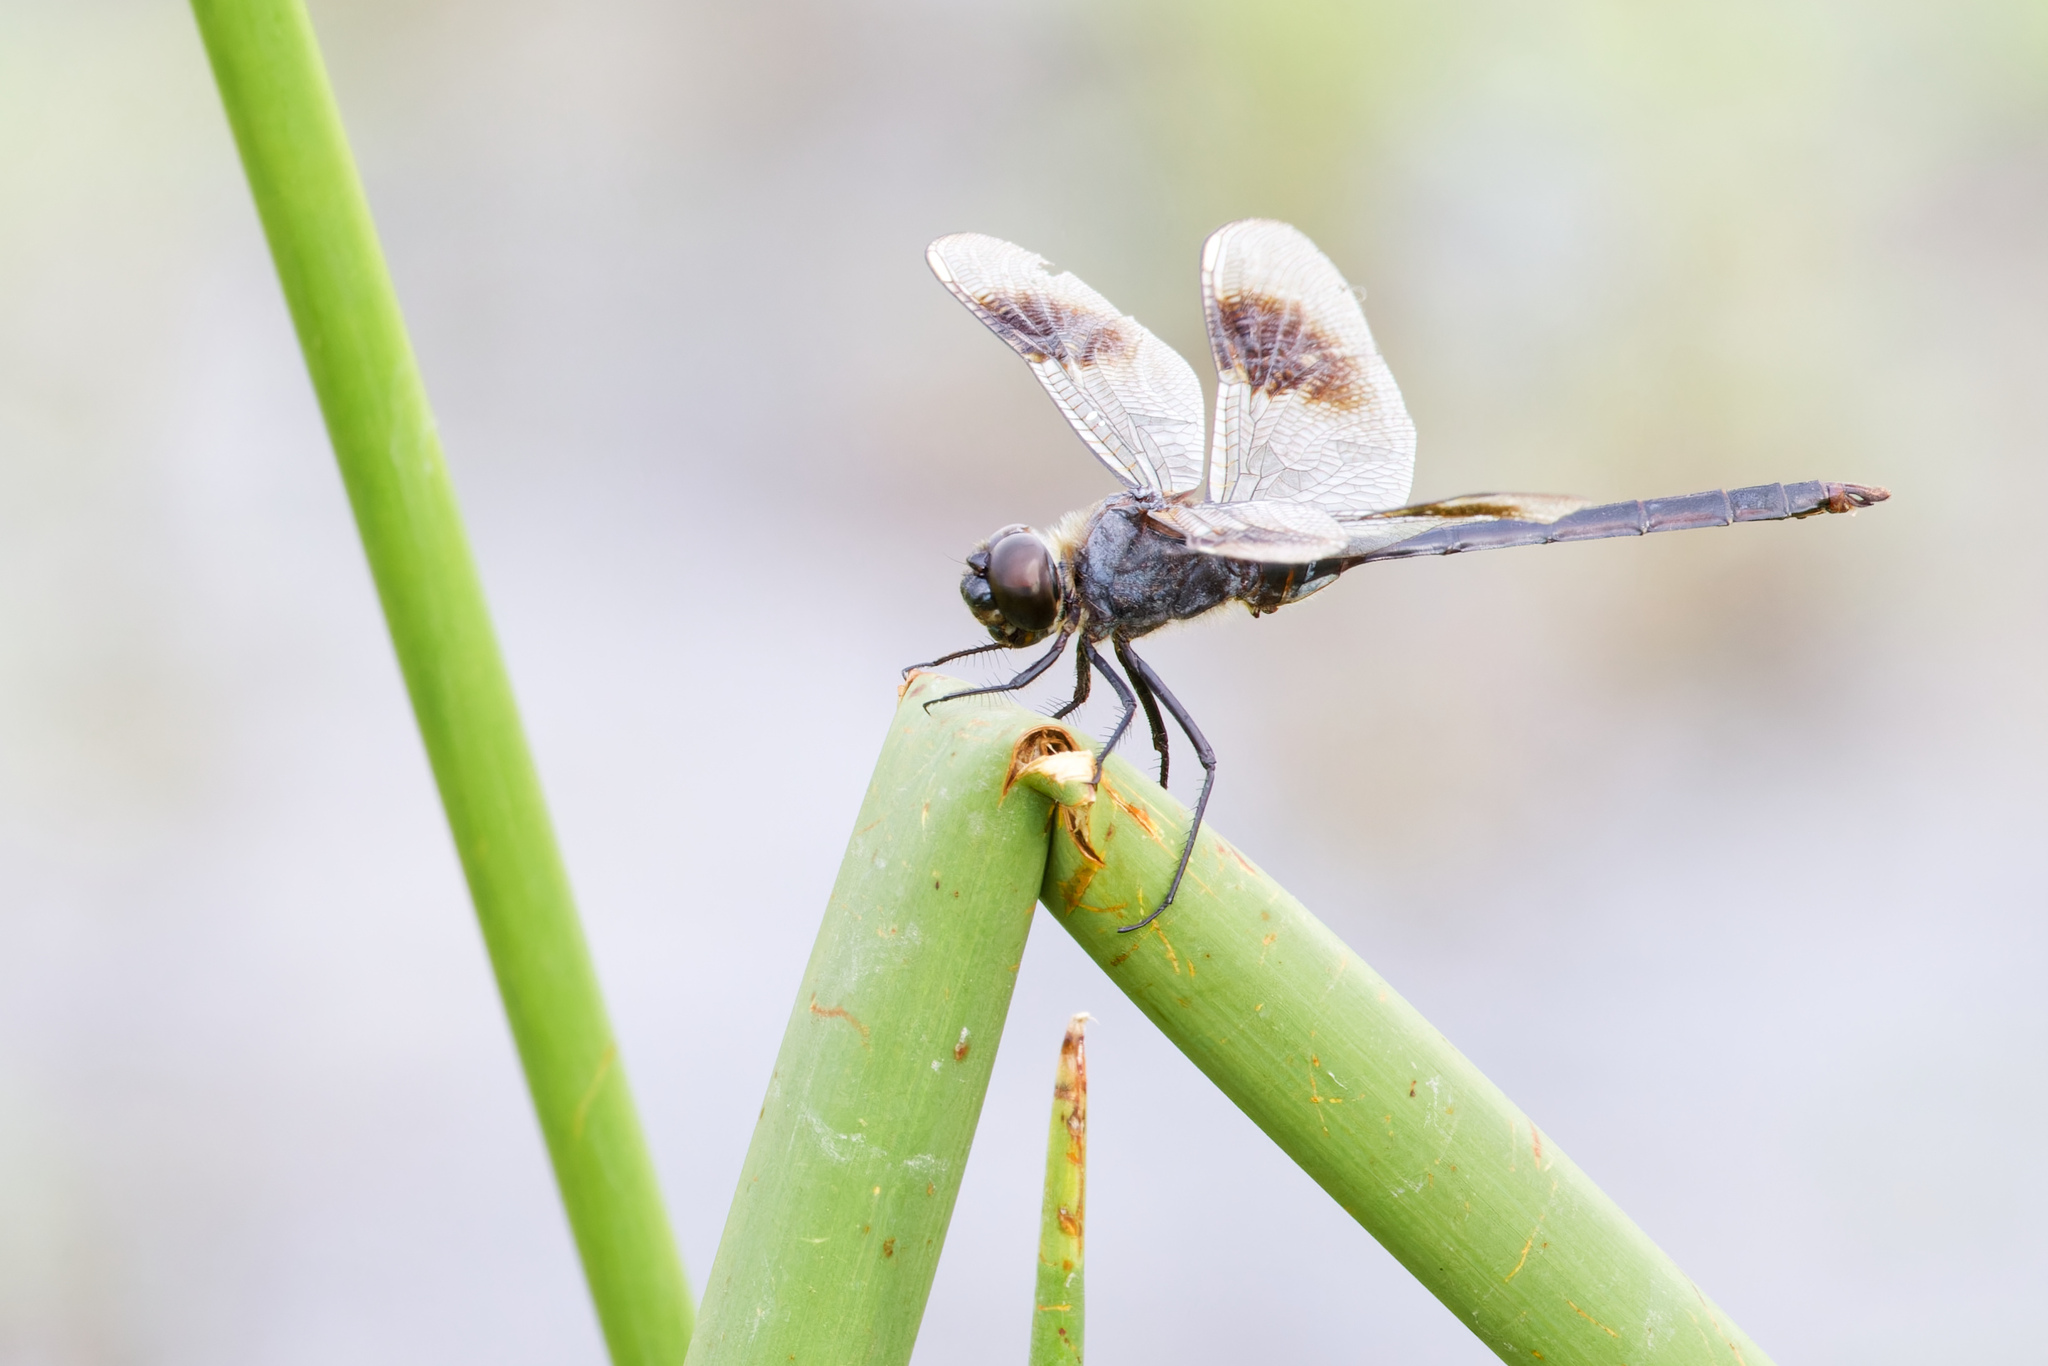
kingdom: Animalia
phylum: Arthropoda
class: Insecta
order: Odonata
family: Libellulidae
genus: Brachymesia
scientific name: Brachymesia gravida
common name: Four-spotted pennant
